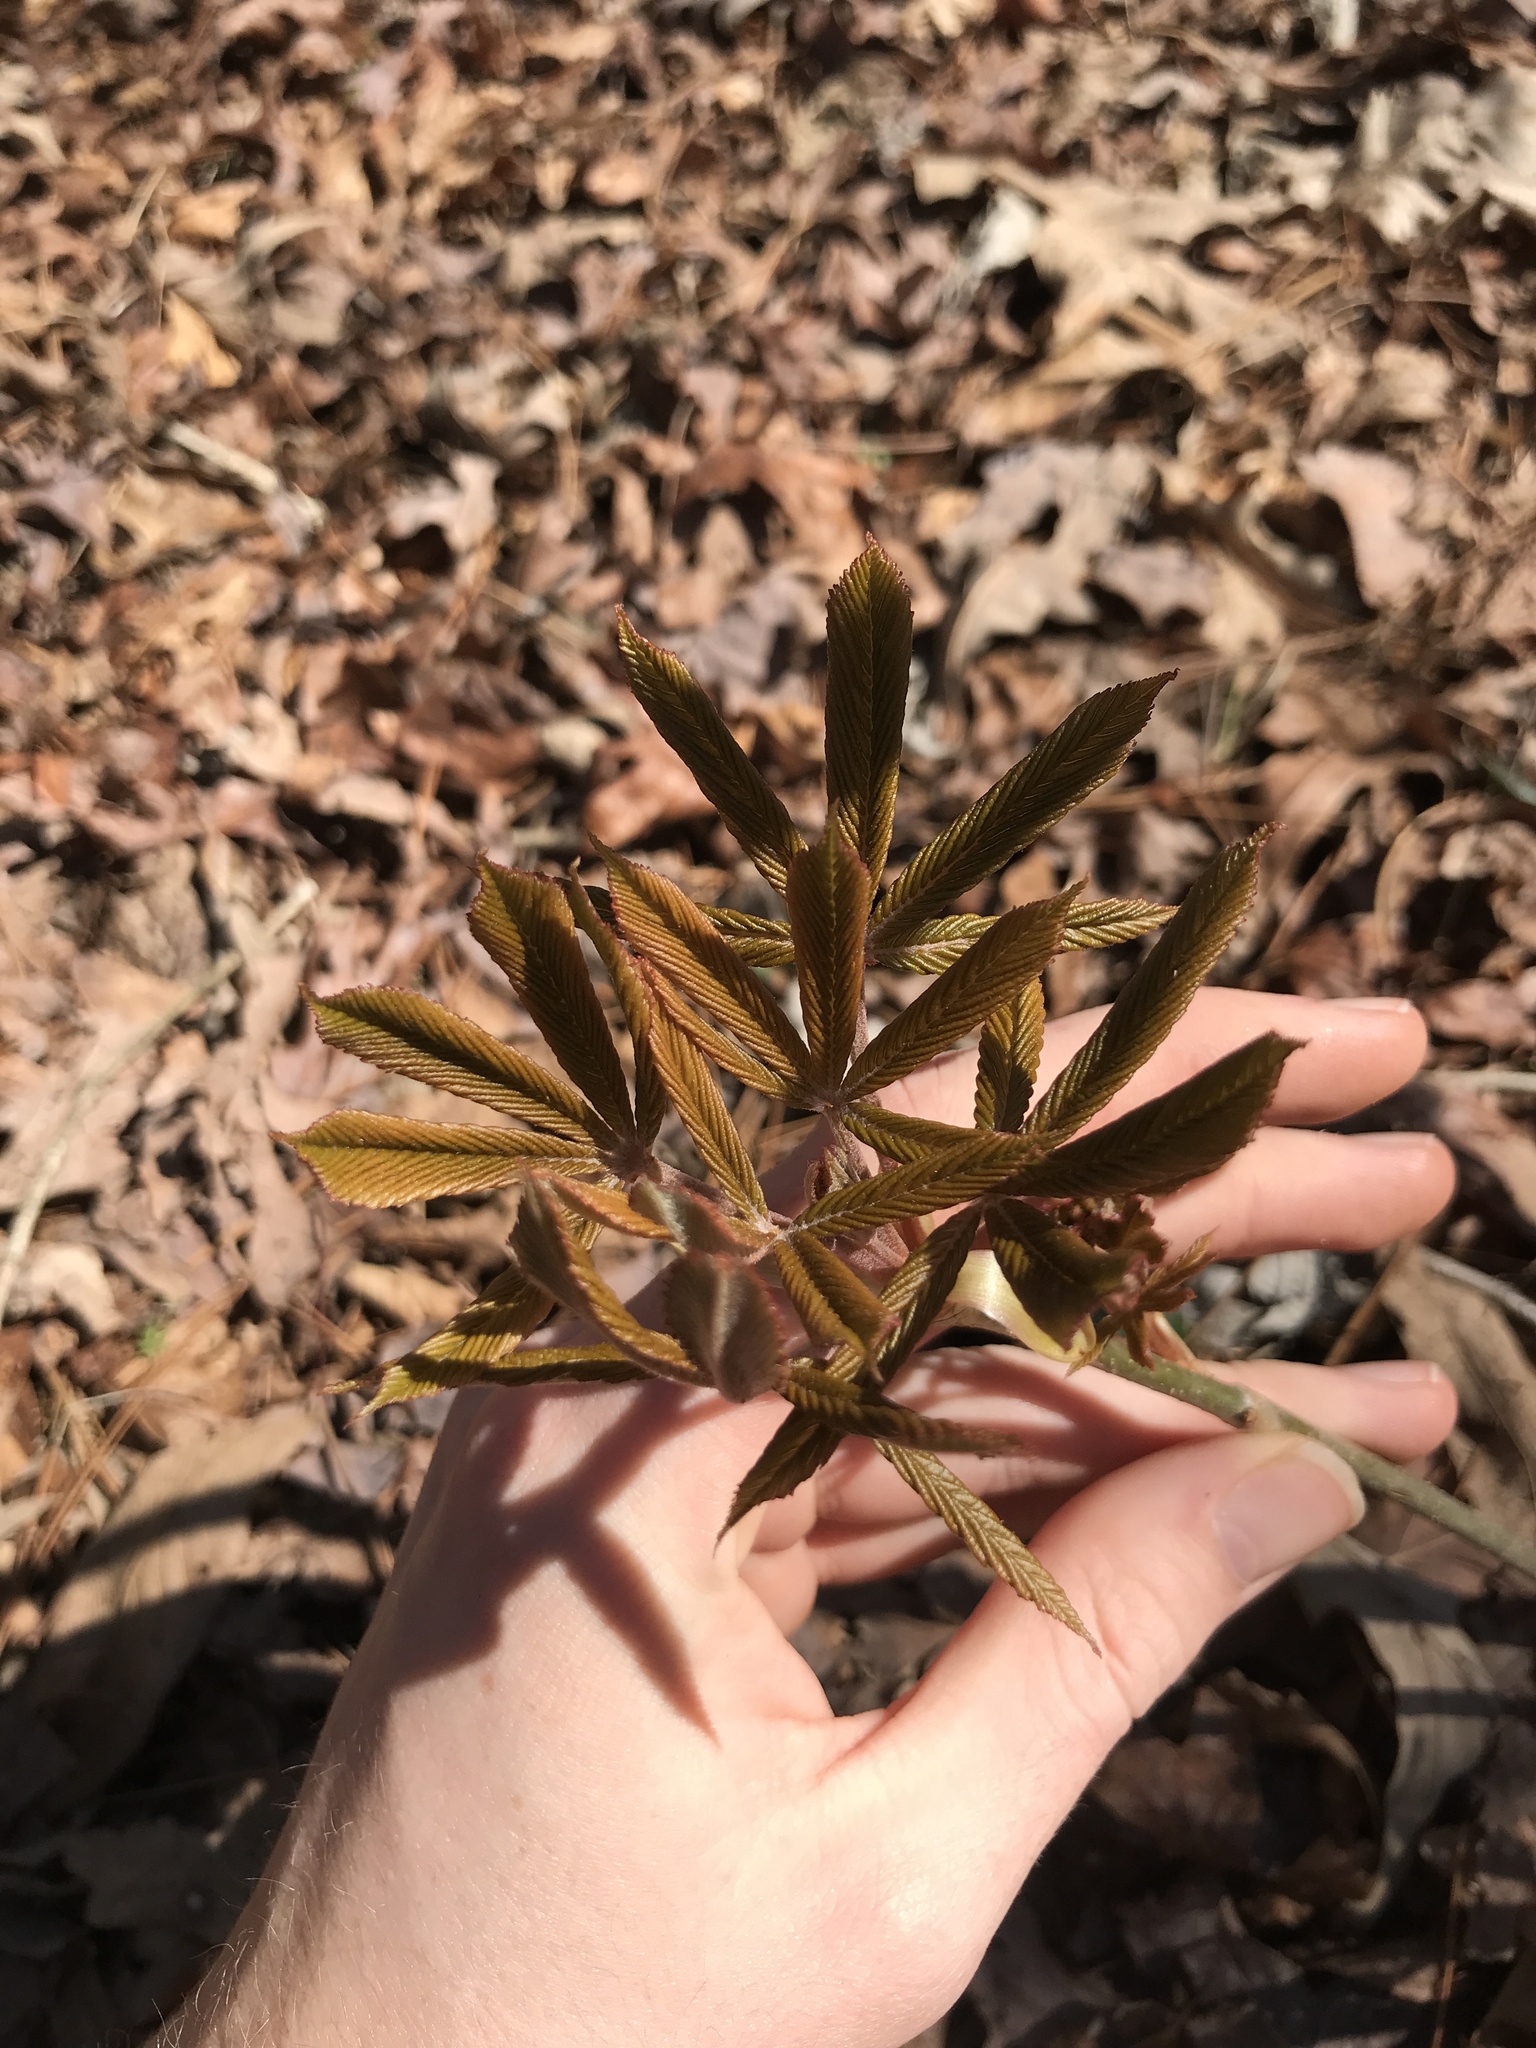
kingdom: Plantae
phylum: Tracheophyta
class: Magnoliopsida
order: Sapindales
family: Sapindaceae
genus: Aesculus
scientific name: Aesculus pavia
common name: Red buckeye
